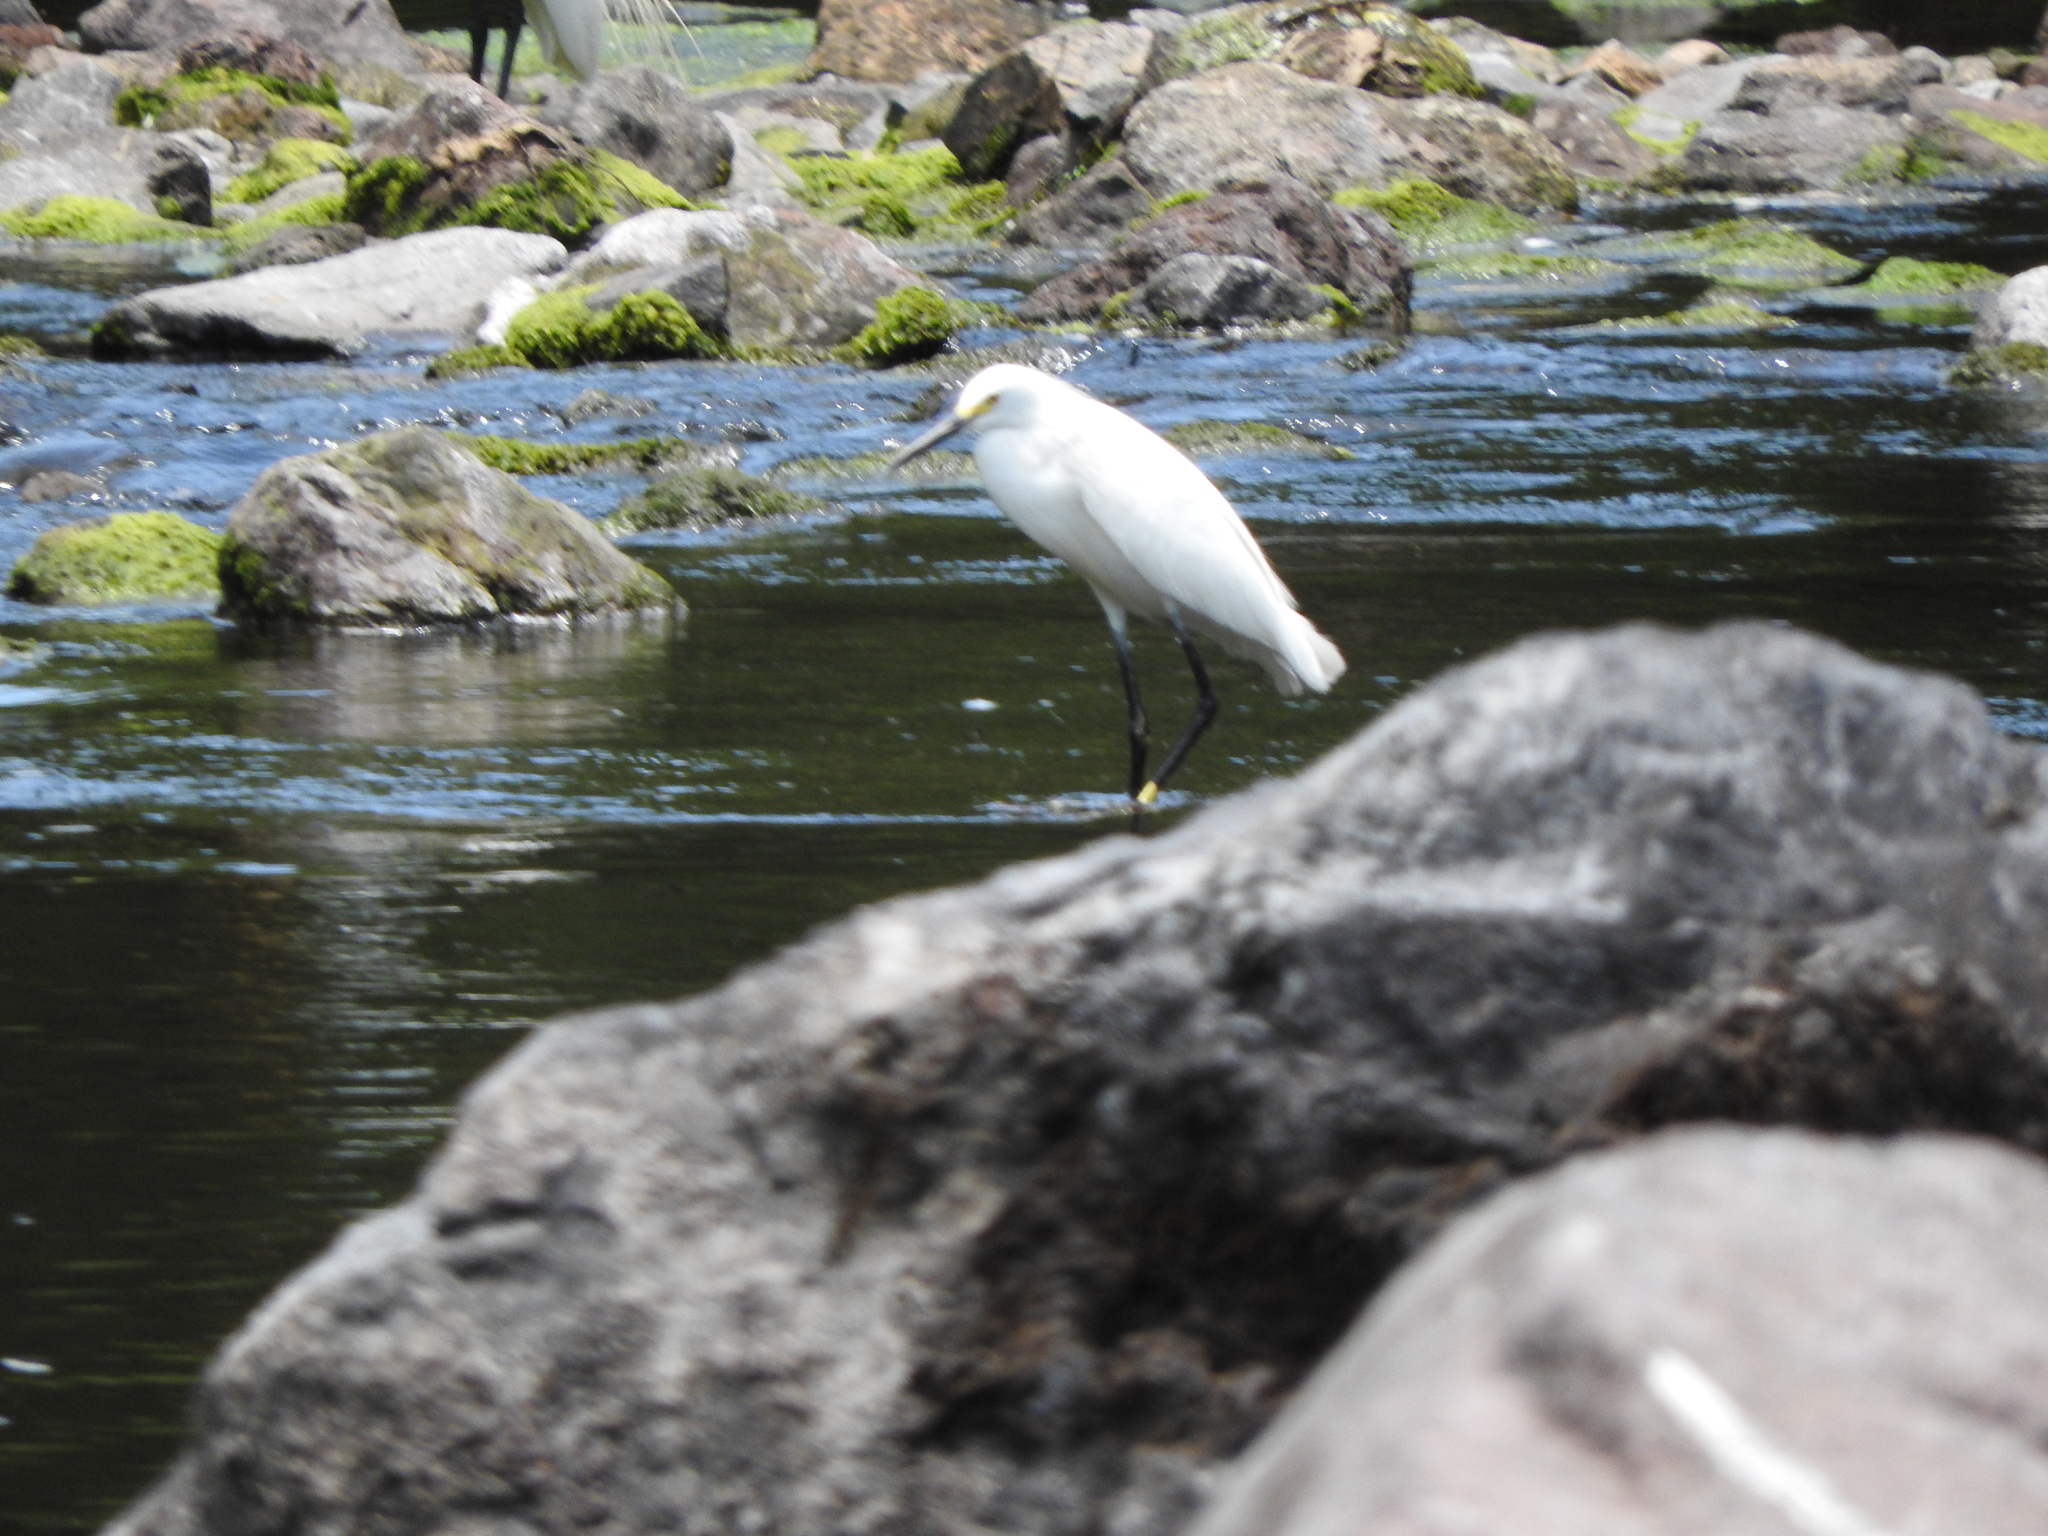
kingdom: Animalia
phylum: Chordata
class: Aves
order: Pelecaniformes
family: Ardeidae
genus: Egretta
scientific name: Egretta thula
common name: Snowy egret
